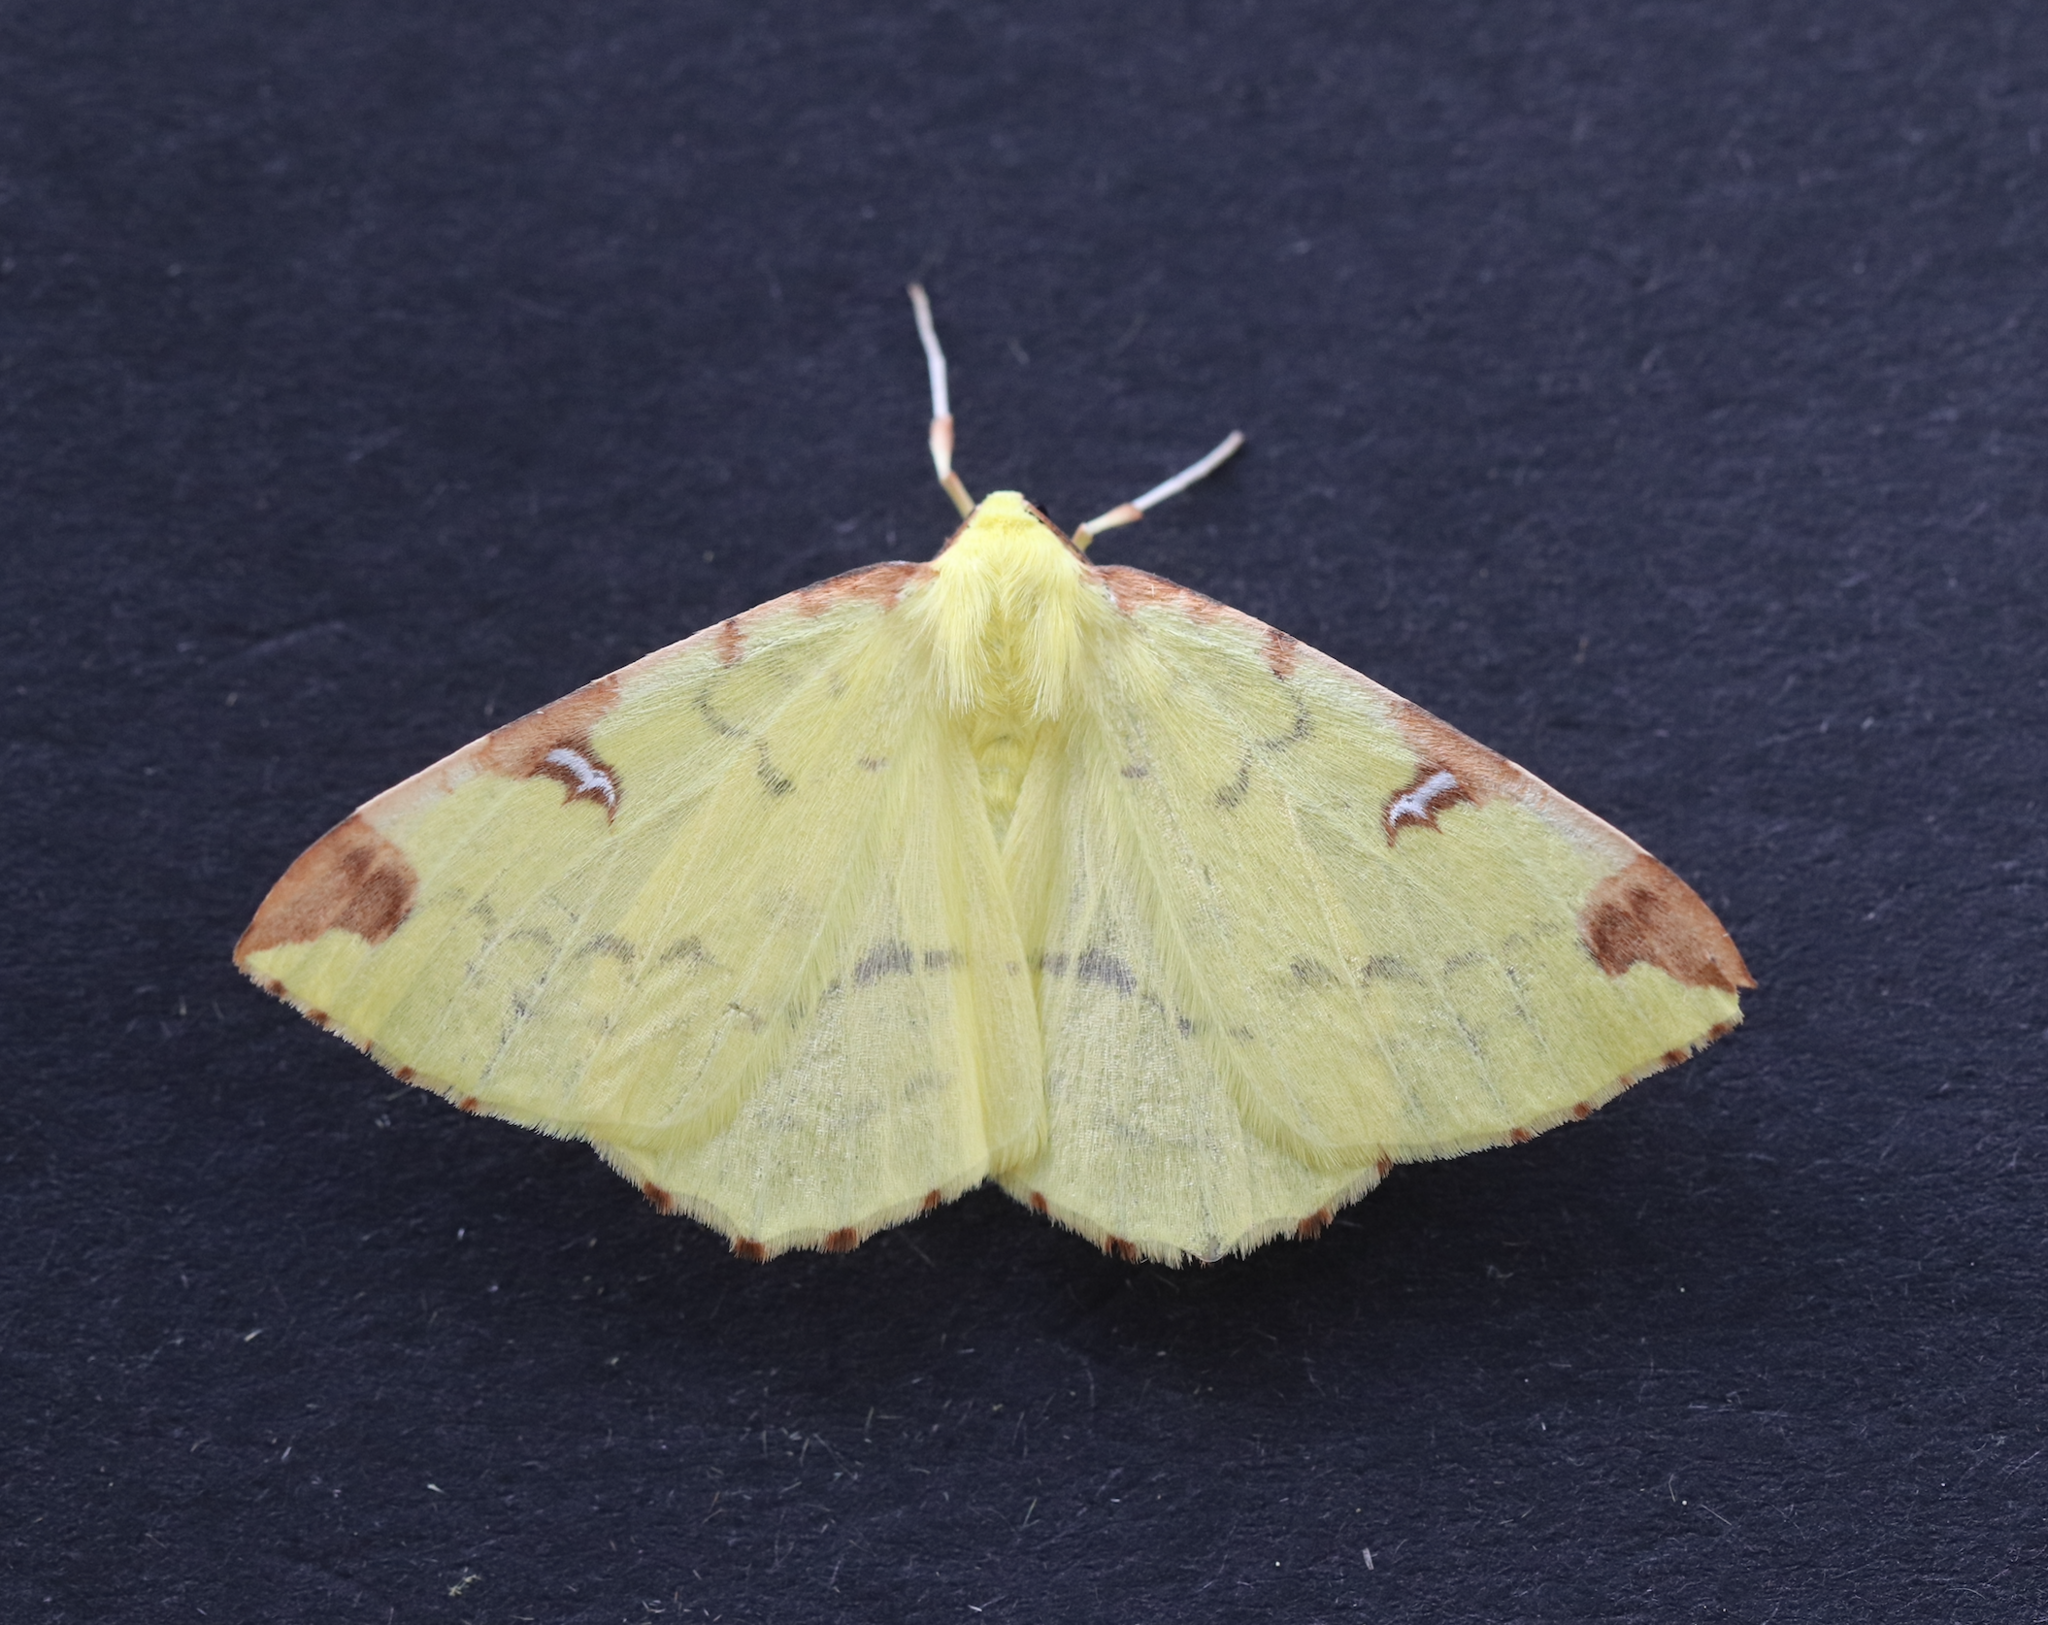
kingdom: Animalia
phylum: Arthropoda
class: Insecta
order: Lepidoptera
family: Geometridae
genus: Opisthograptis
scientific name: Opisthograptis luteolata
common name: Brimstone moth
